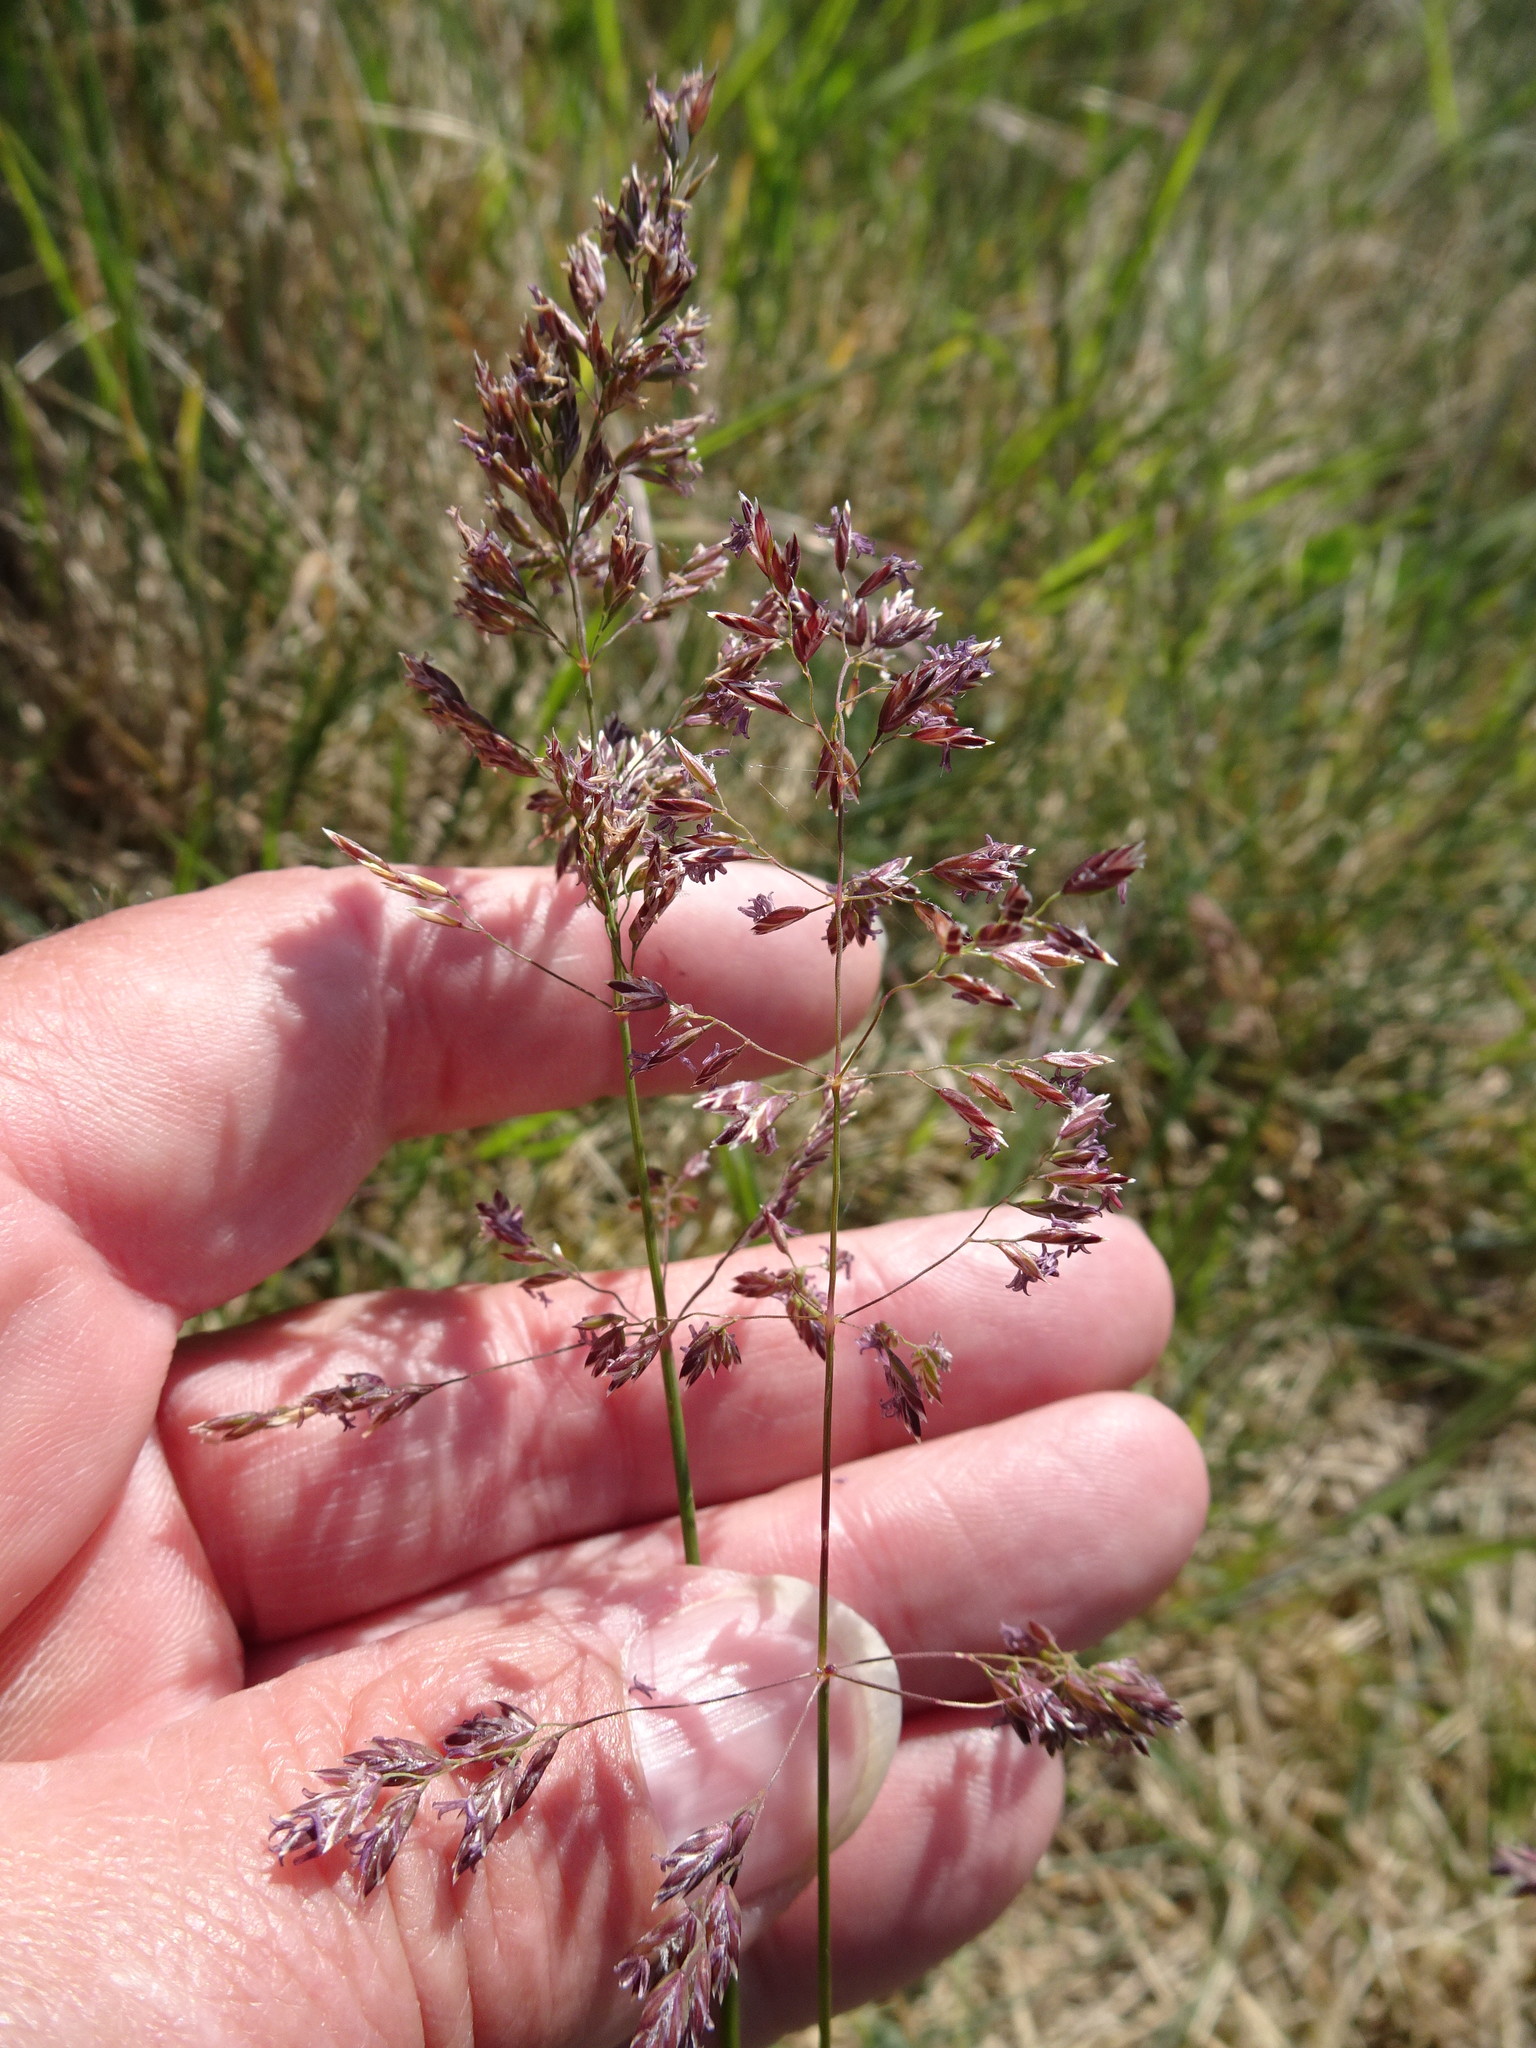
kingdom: Plantae
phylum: Tracheophyta
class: Liliopsida
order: Poales
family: Poaceae
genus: Poa
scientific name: Poa pratensis
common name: Kentucky bluegrass
